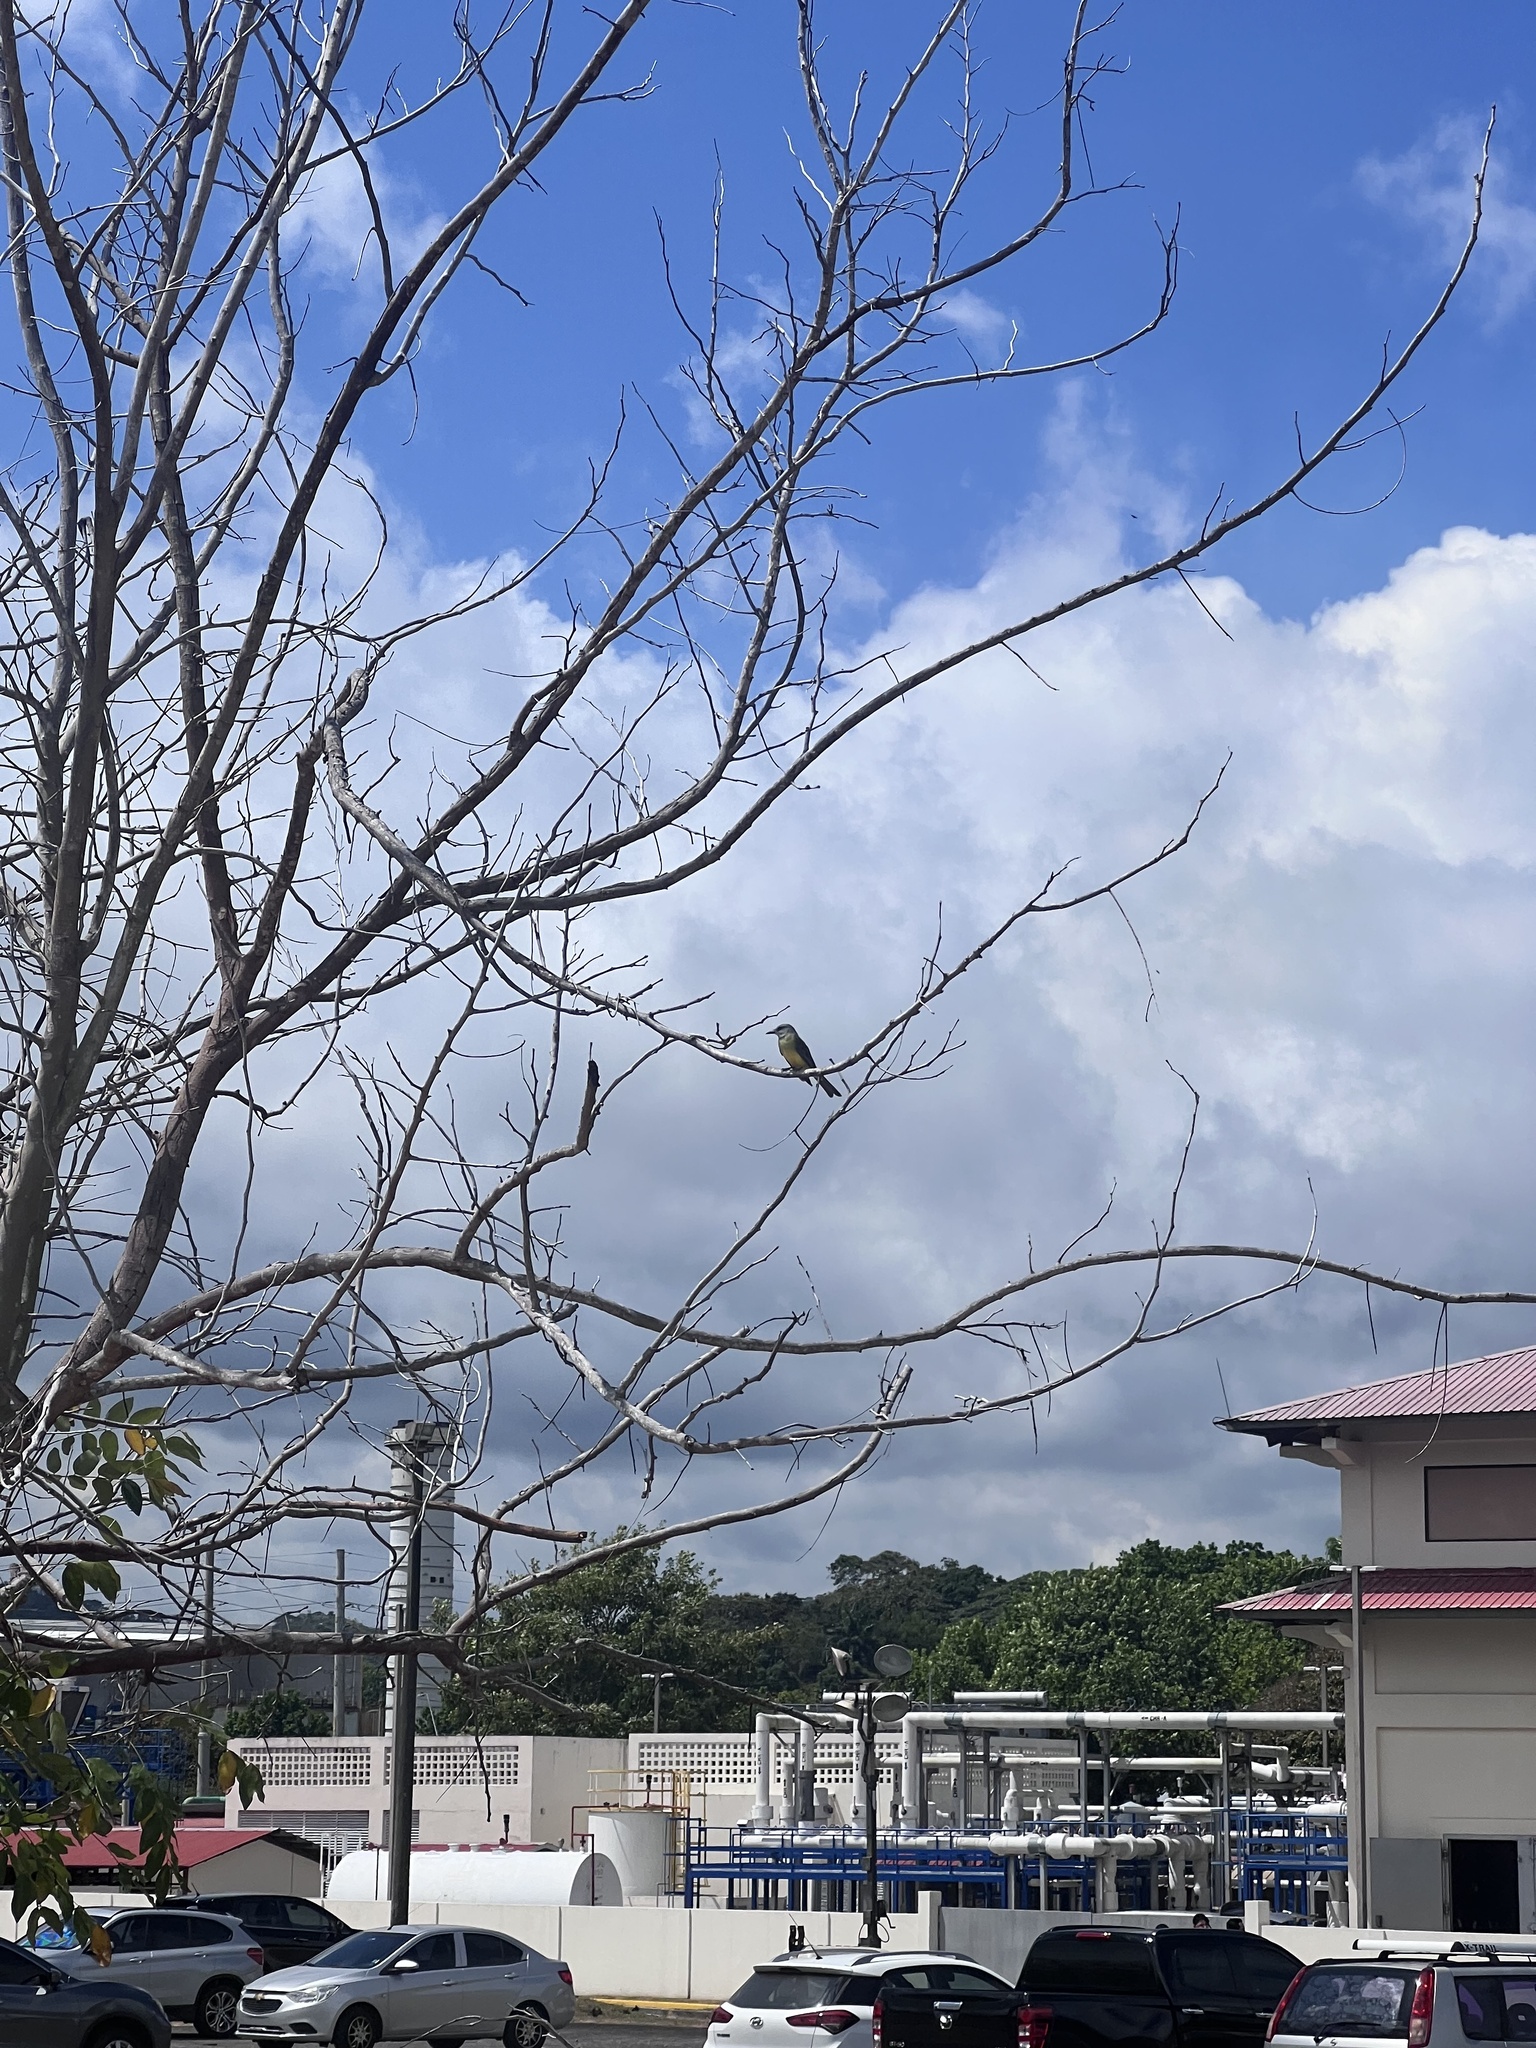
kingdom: Animalia
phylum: Chordata
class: Aves
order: Passeriformes
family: Tyrannidae
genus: Tyrannus
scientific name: Tyrannus melancholicus
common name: Tropical kingbird
